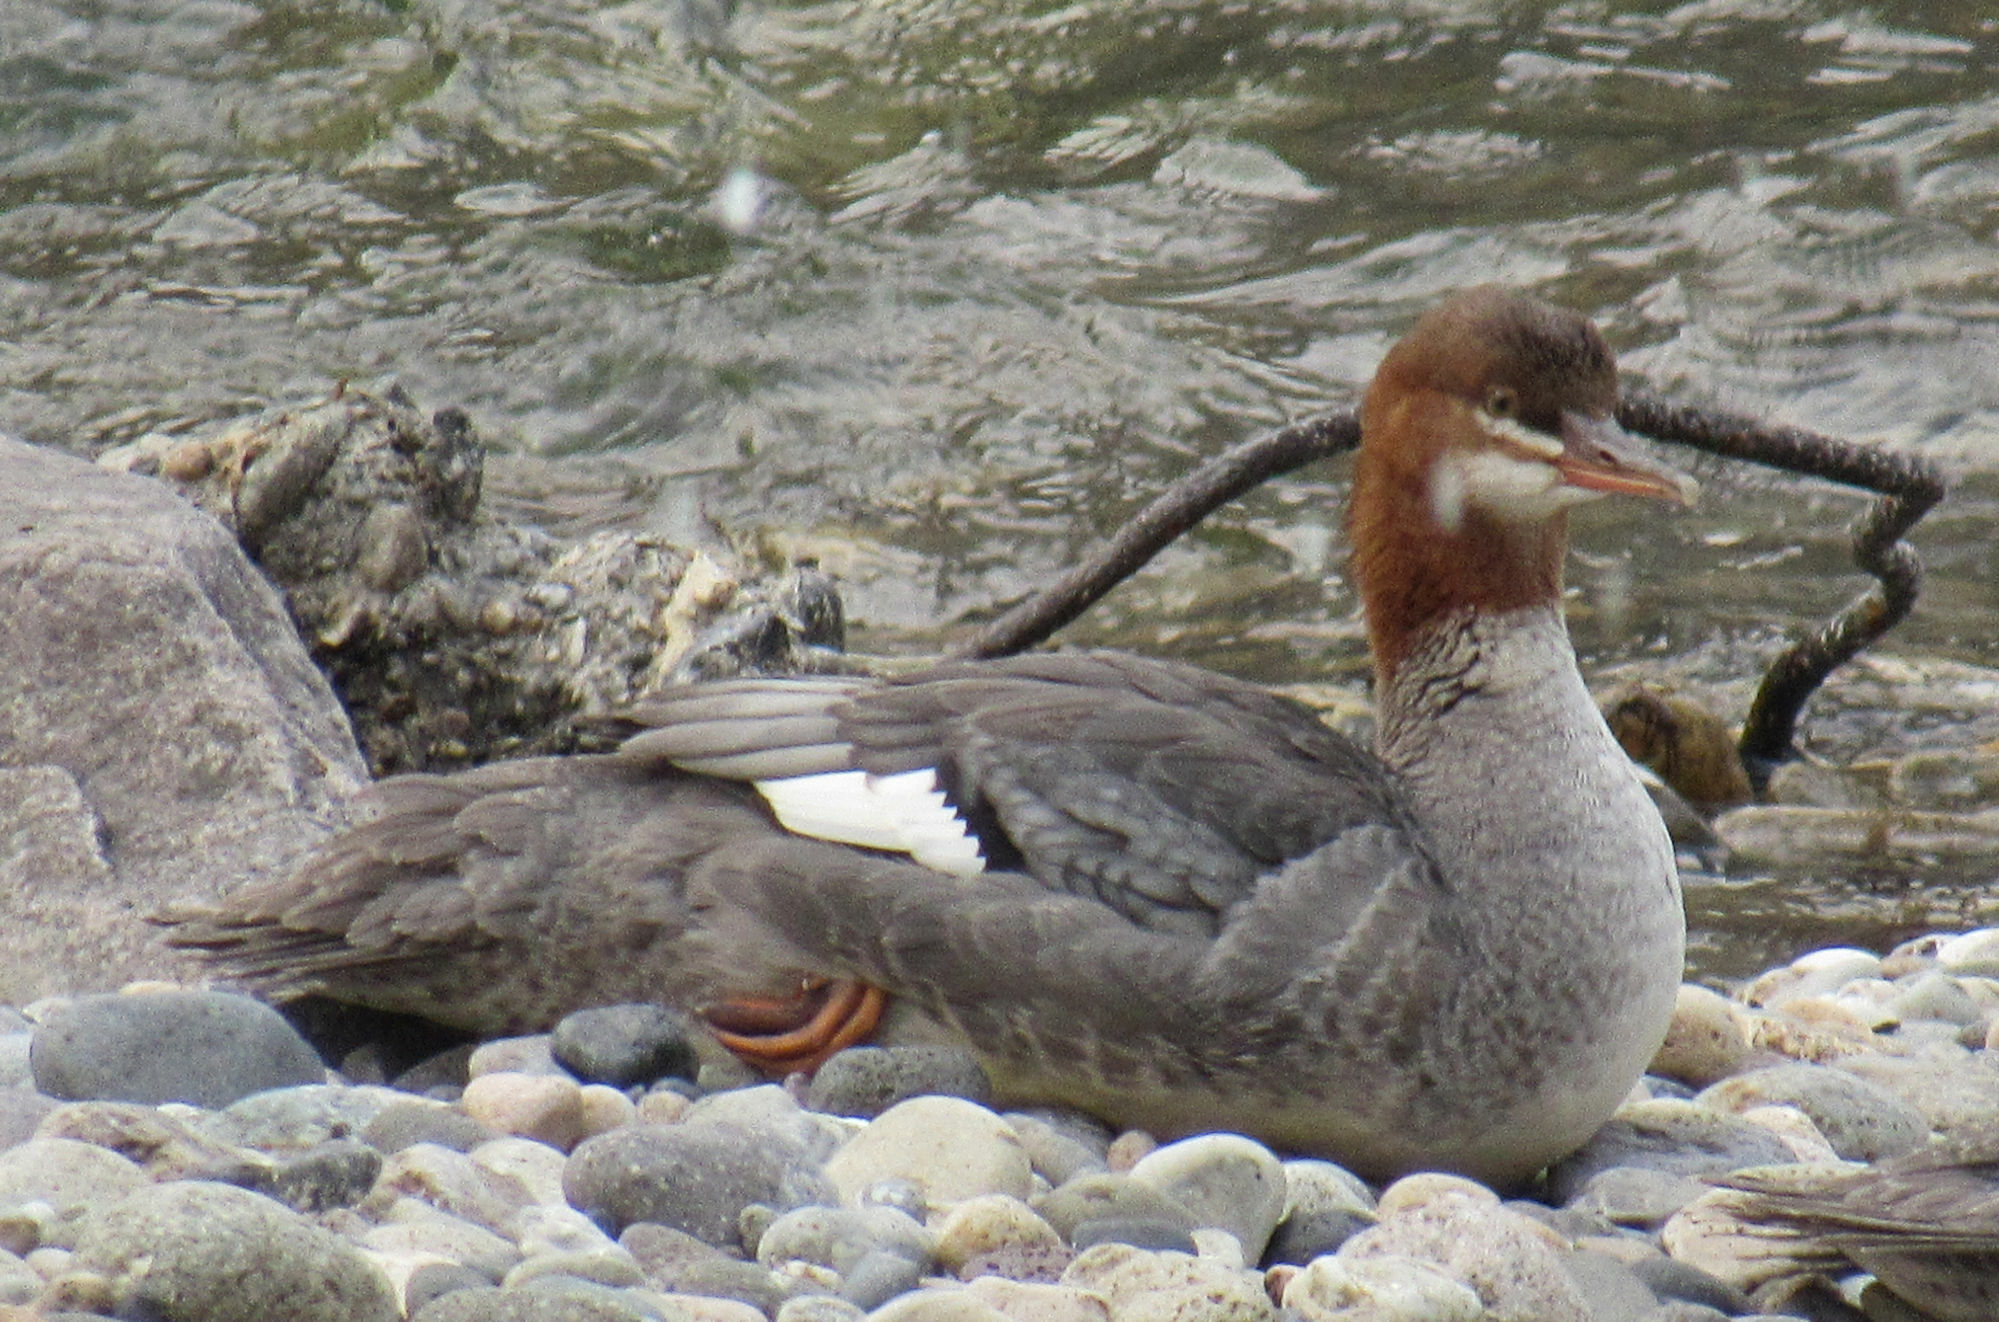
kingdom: Animalia
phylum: Chordata
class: Aves
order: Anseriformes
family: Anatidae
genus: Mergus
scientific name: Mergus merganser
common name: Common merganser
